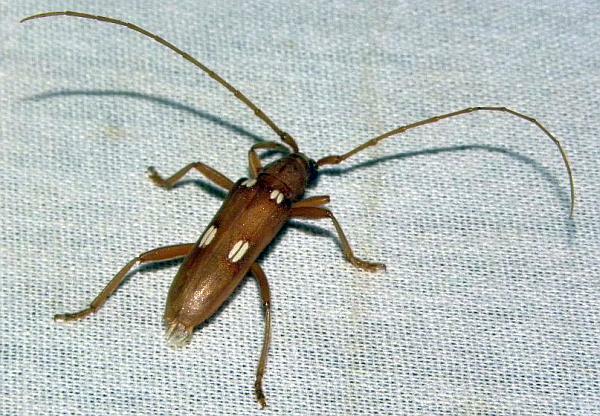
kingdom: Animalia
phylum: Arthropoda
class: Insecta
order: Coleoptera
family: Cerambycidae
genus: Eburia
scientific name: Eburia quadrigeminata
